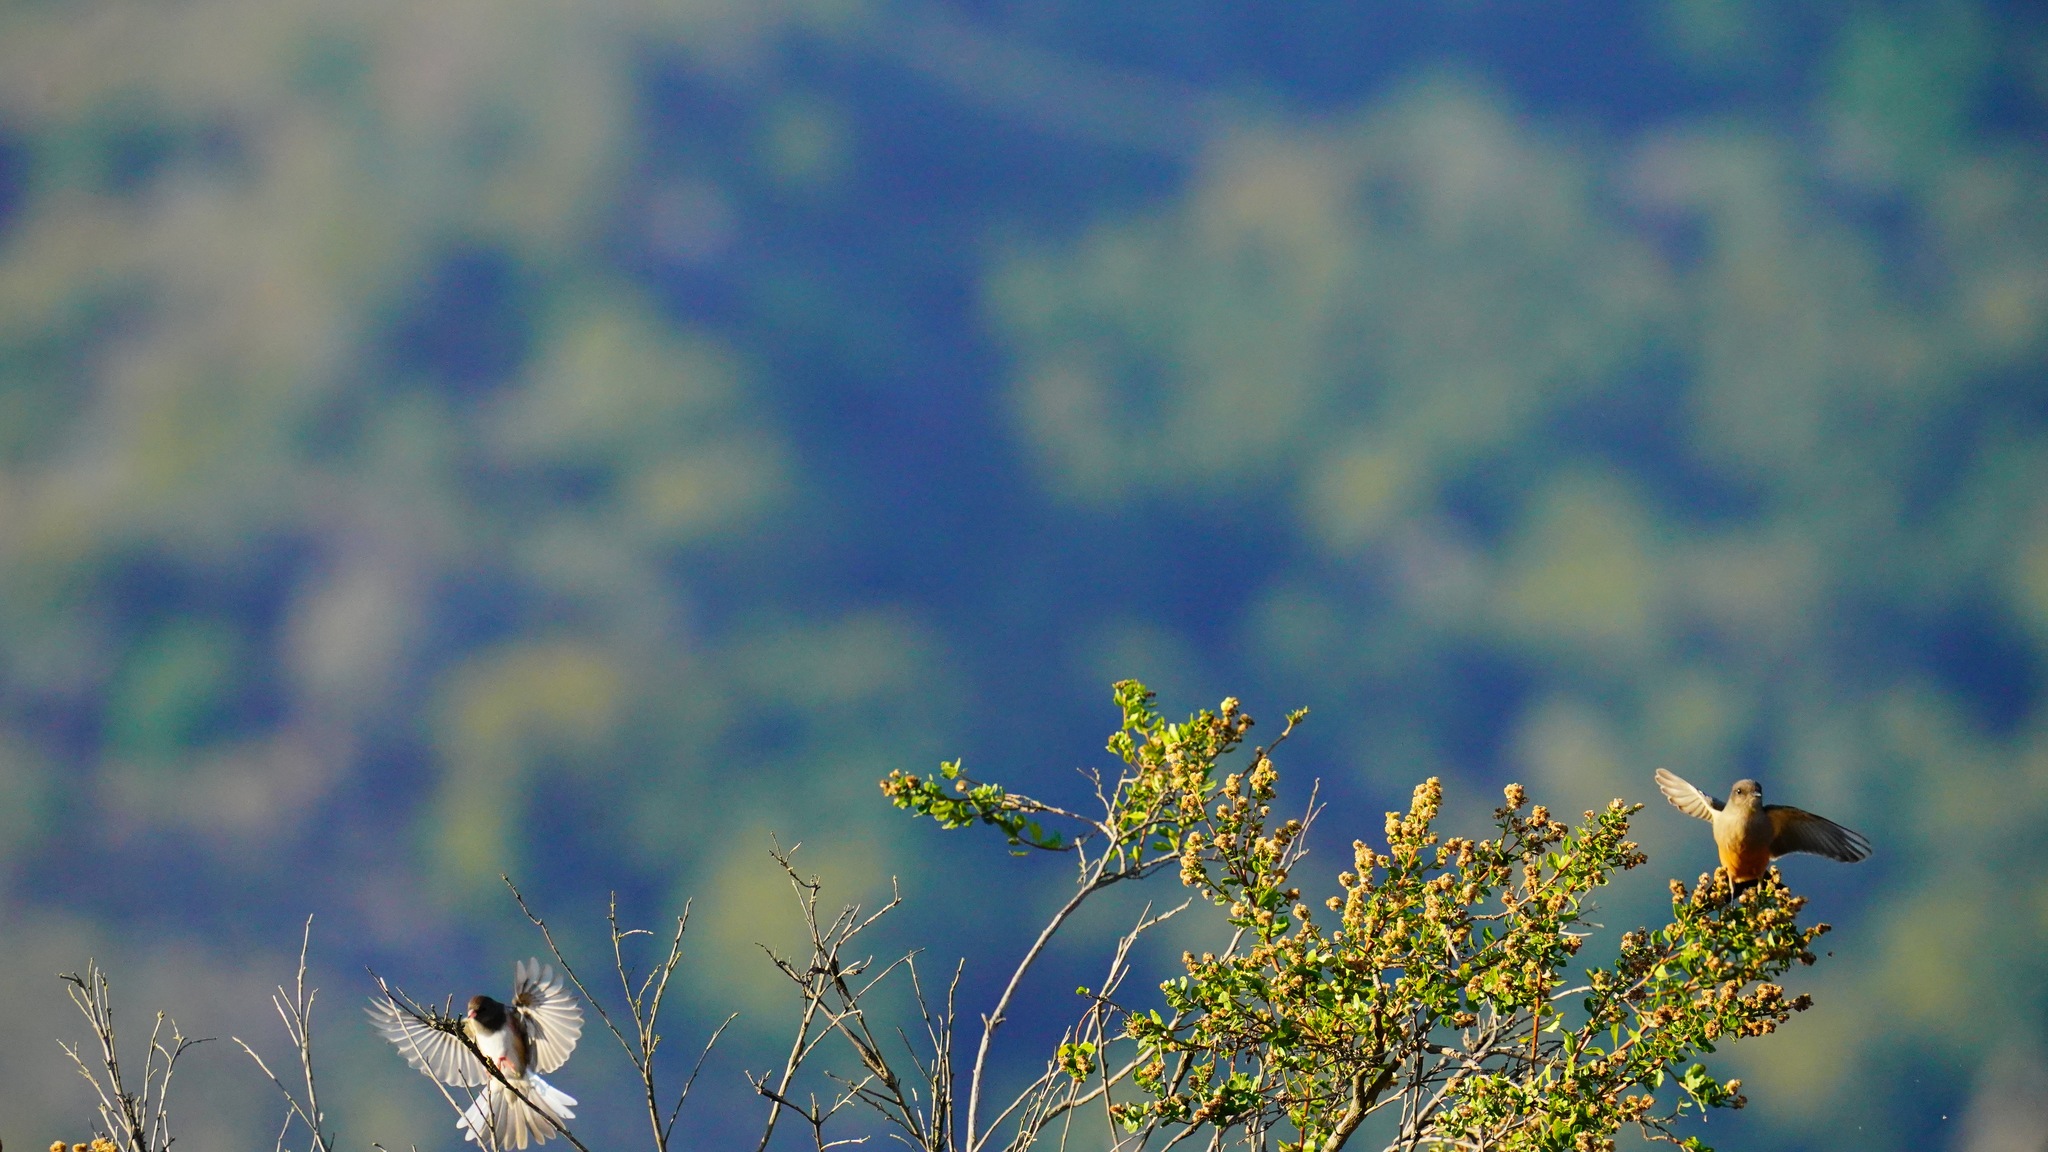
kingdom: Animalia
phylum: Chordata
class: Aves
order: Passeriformes
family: Tyrannidae
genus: Sayornis
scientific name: Sayornis saya
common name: Say's phoebe
